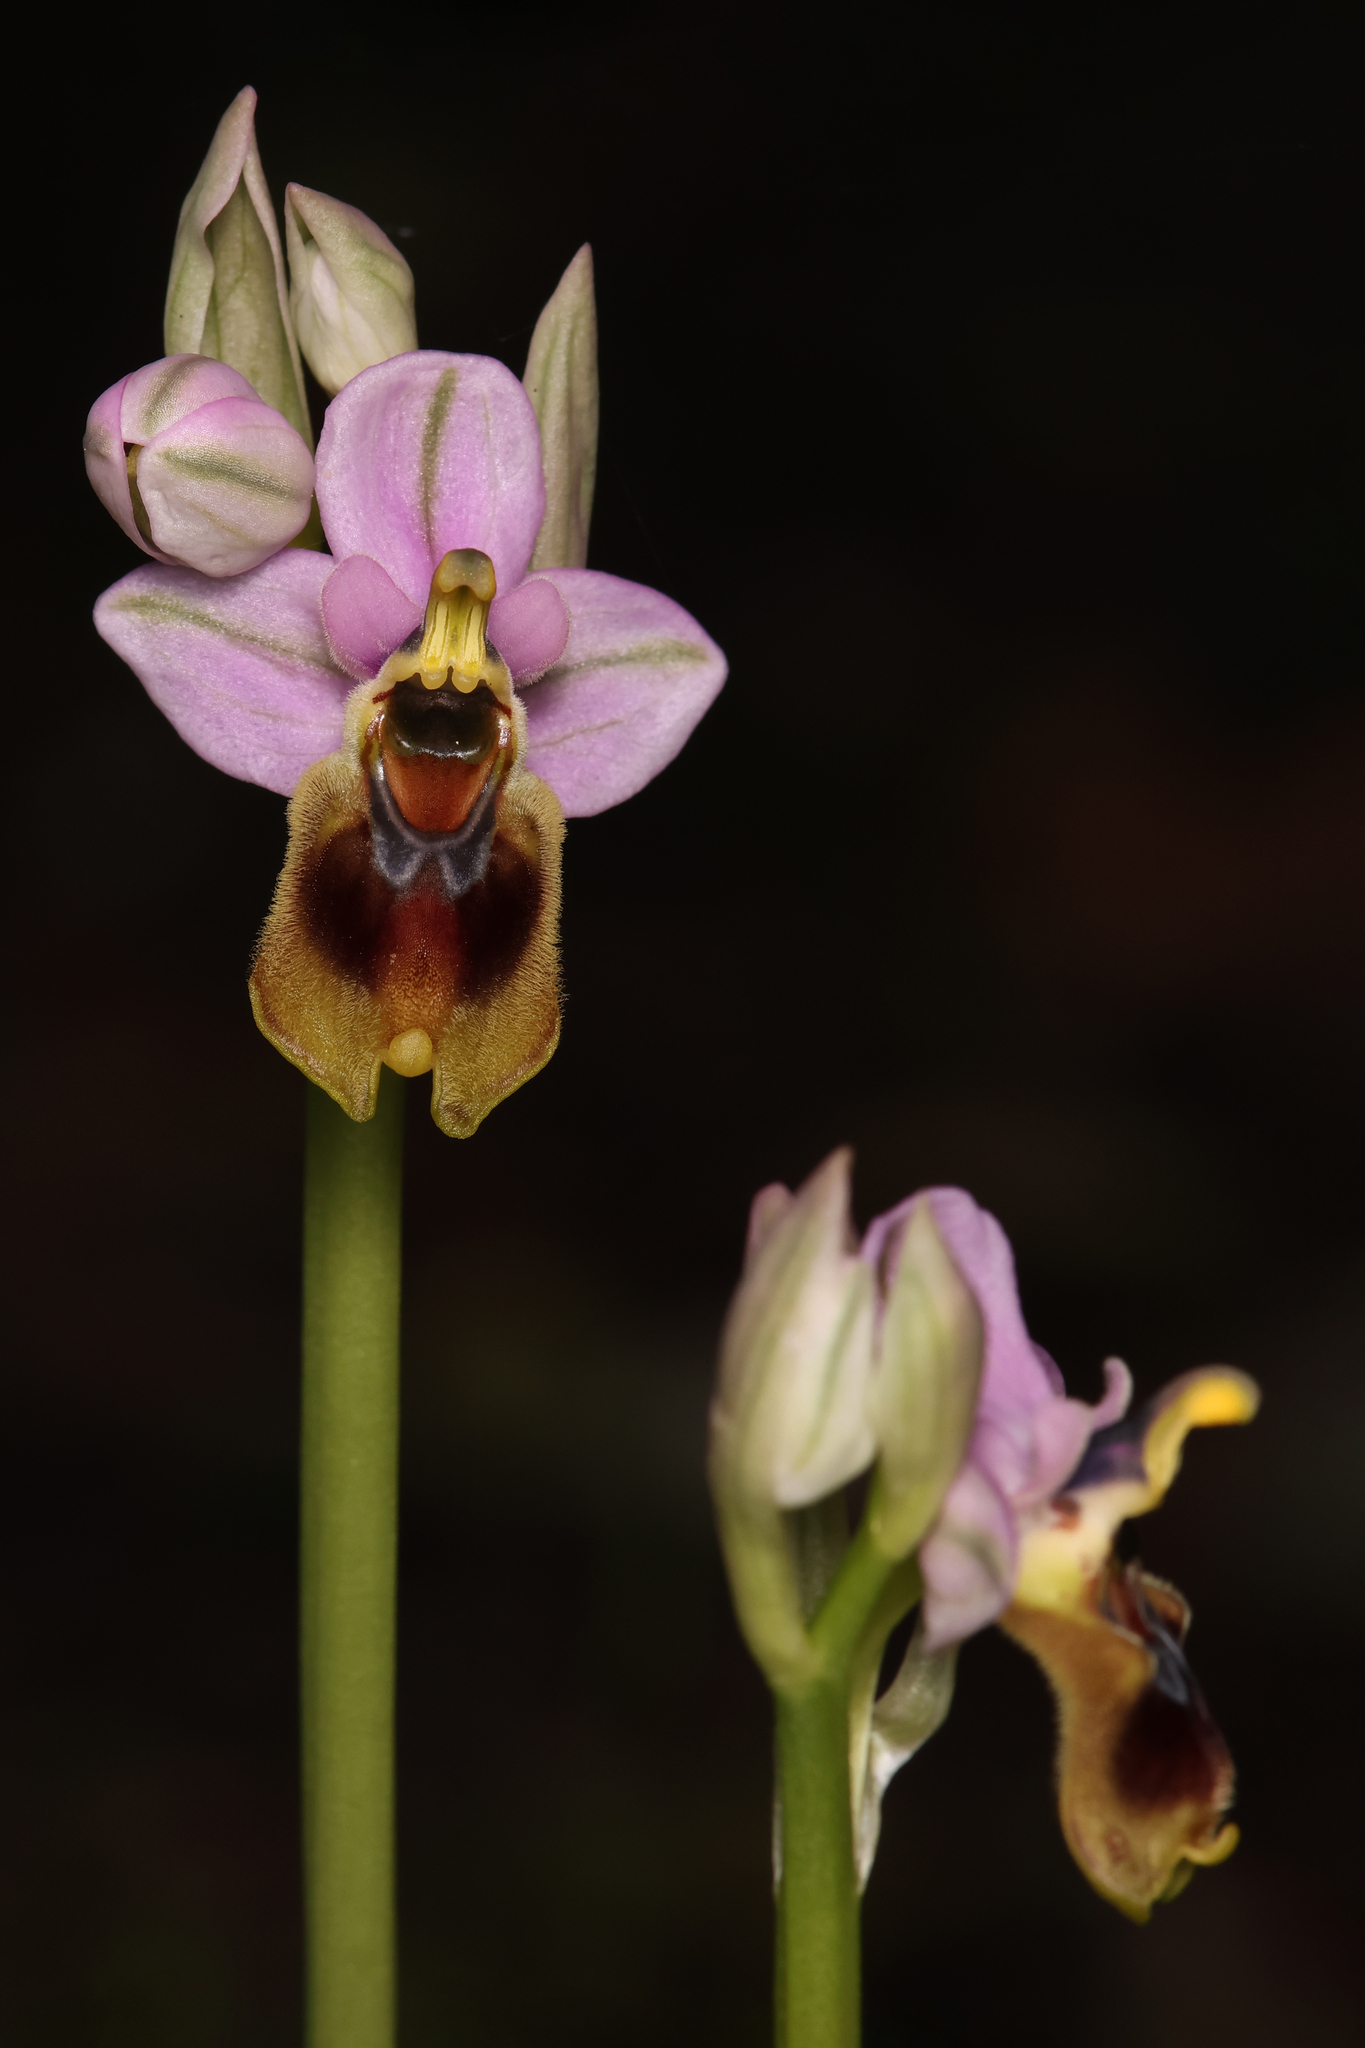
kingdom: Plantae
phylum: Tracheophyta
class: Liliopsida
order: Asparagales
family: Orchidaceae
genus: Ophrys
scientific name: Ophrys tenthredinifera
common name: Sawfly orchid
